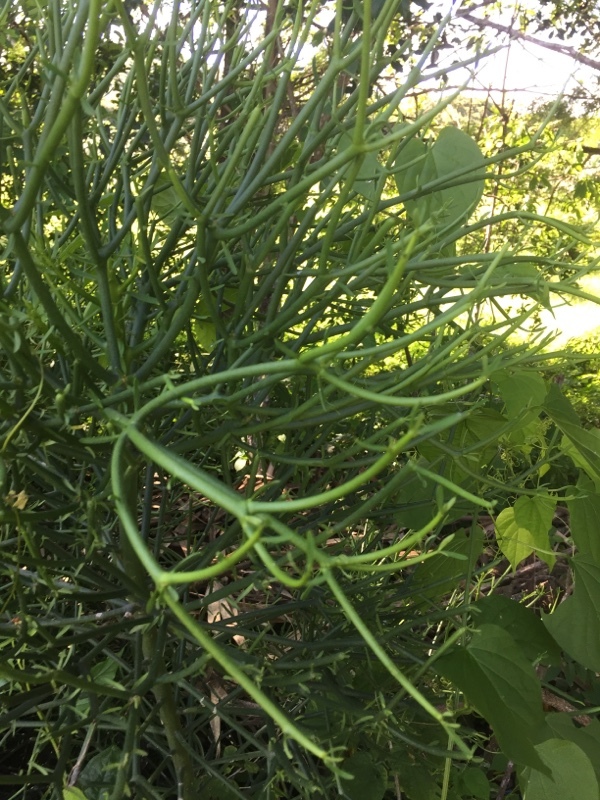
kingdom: Plantae
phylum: Tracheophyta
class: Magnoliopsida
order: Malpighiales
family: Euphorbiaceae
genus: Euphorbia
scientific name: Euphorbia tirucalli
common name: Indiantree spurge
